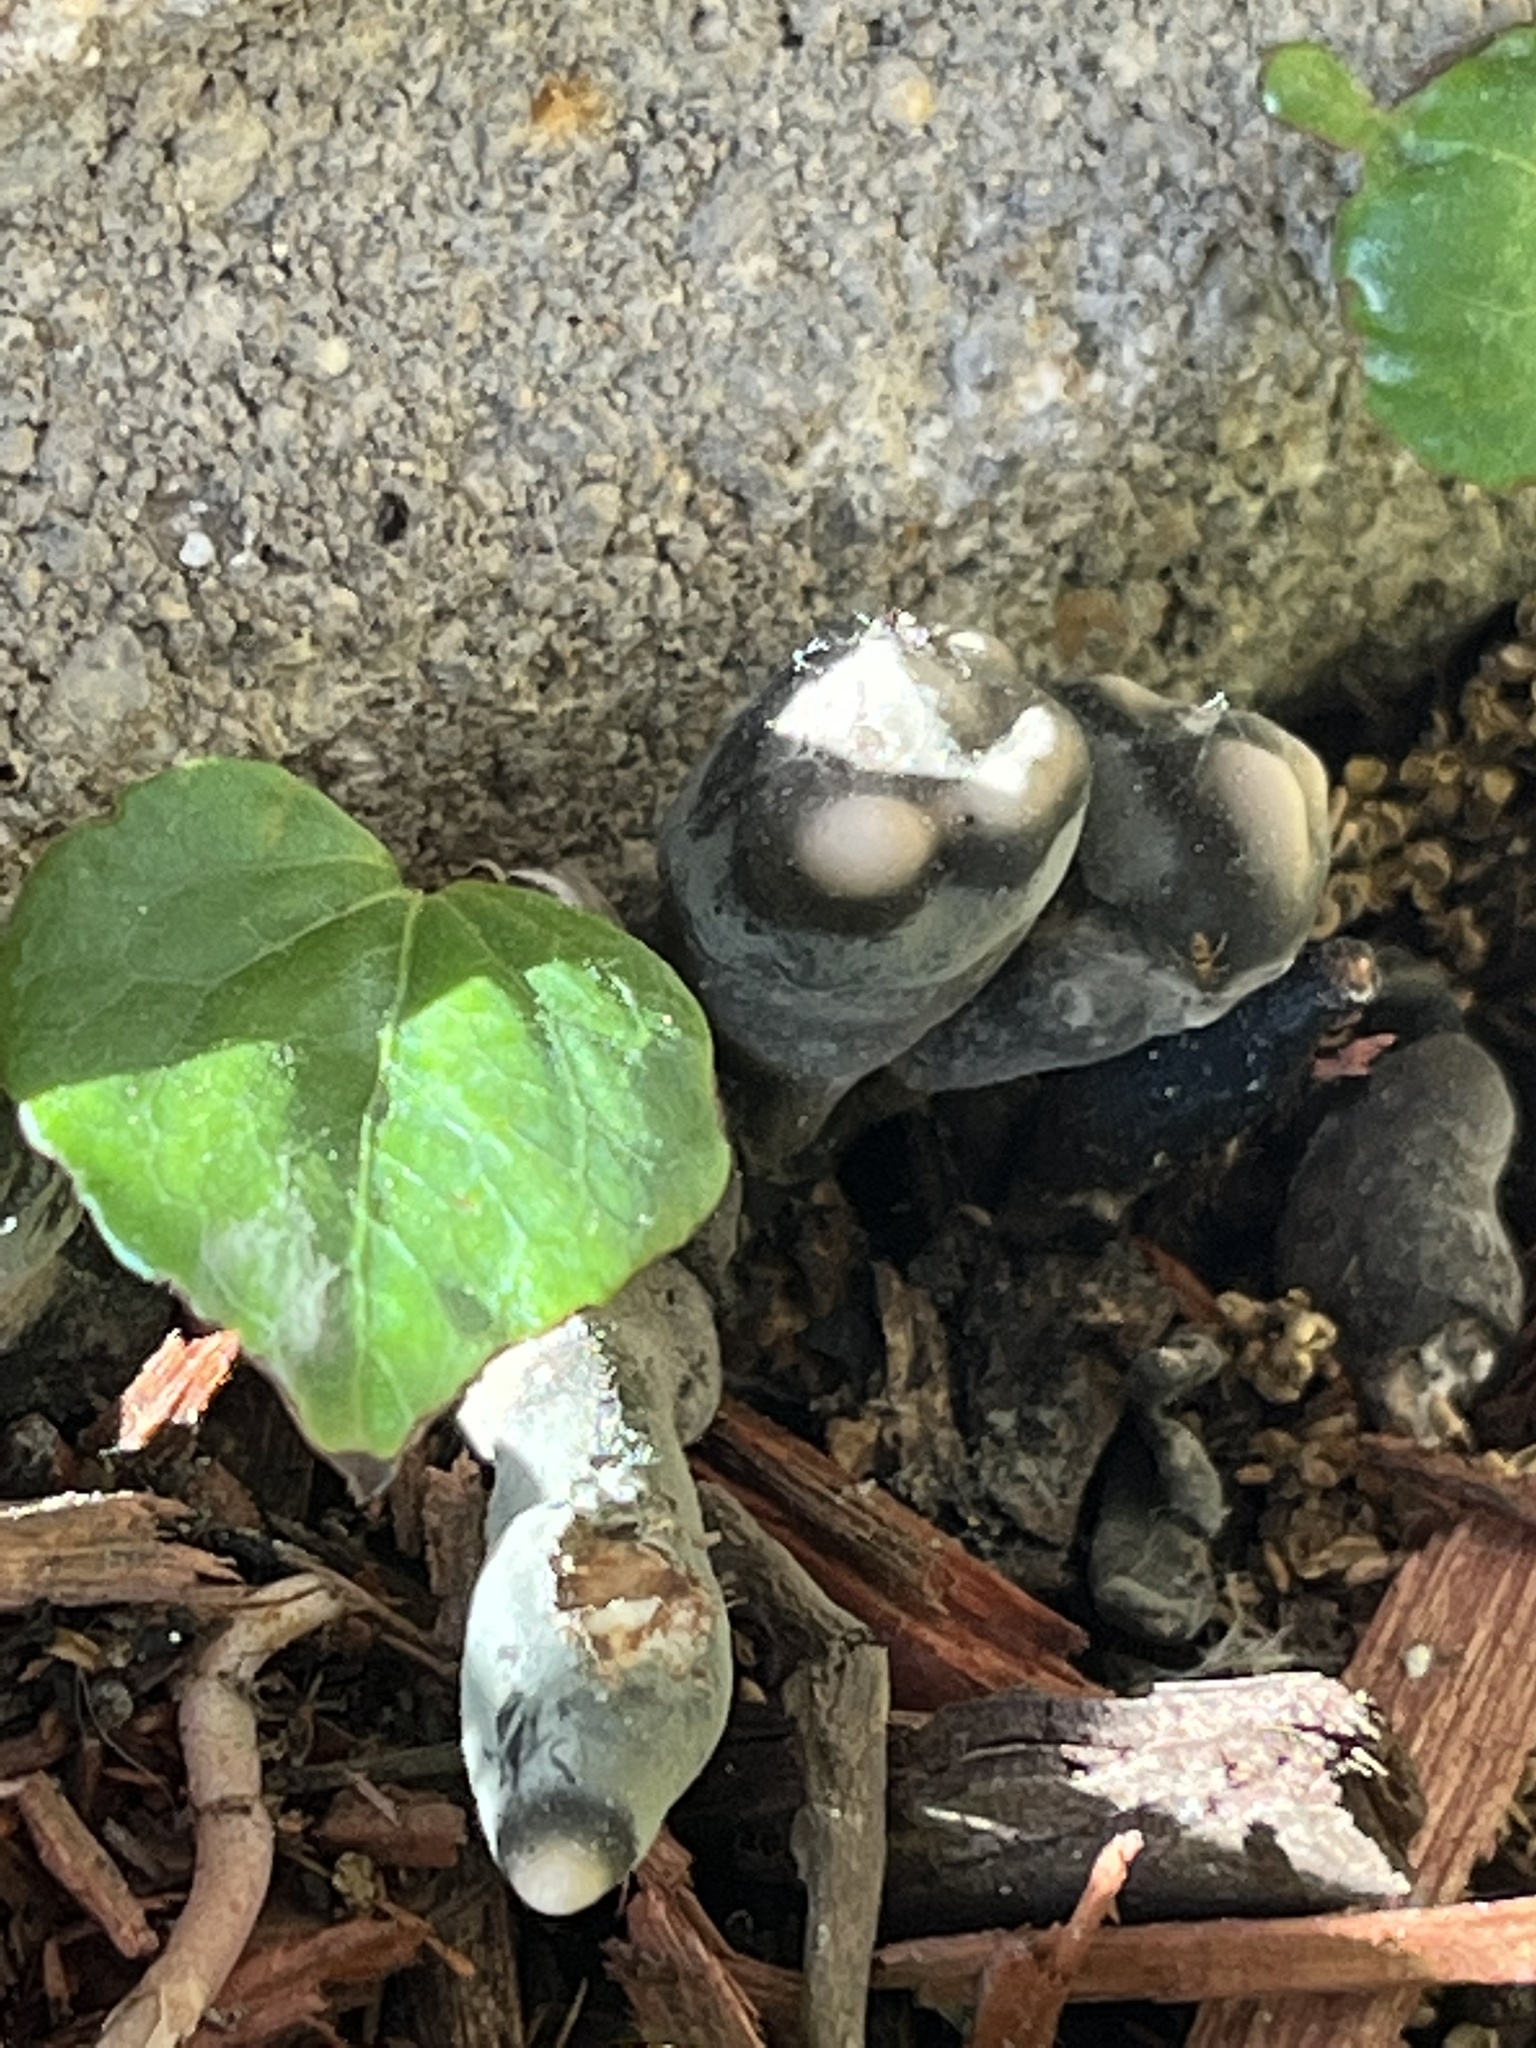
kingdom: Fungi
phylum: Ascomycota
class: Sordariomycetes
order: Xylariales
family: Xylariaceae
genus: Xylaria
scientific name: Xylaria polymorpha
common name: Dead man's fingers
